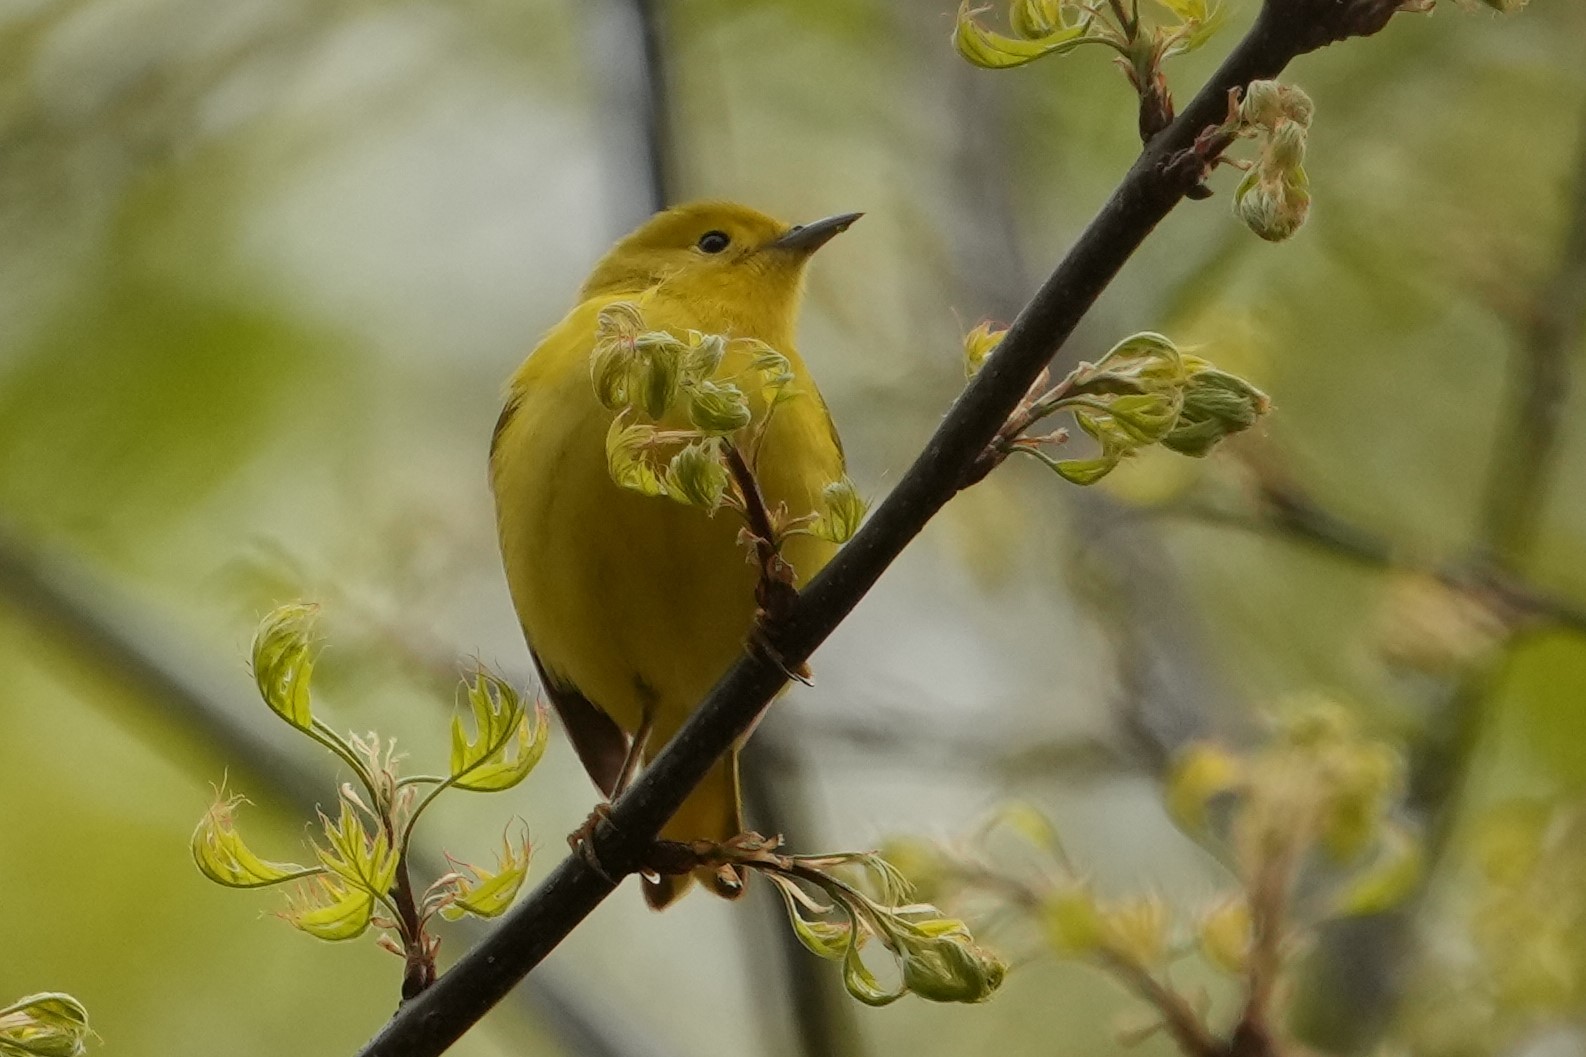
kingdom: Animalia
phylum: Chordata
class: Aves
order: Passeriformes
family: Parulidae
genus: Setophaga
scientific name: Setophaga petechia
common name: Yellow warbler
